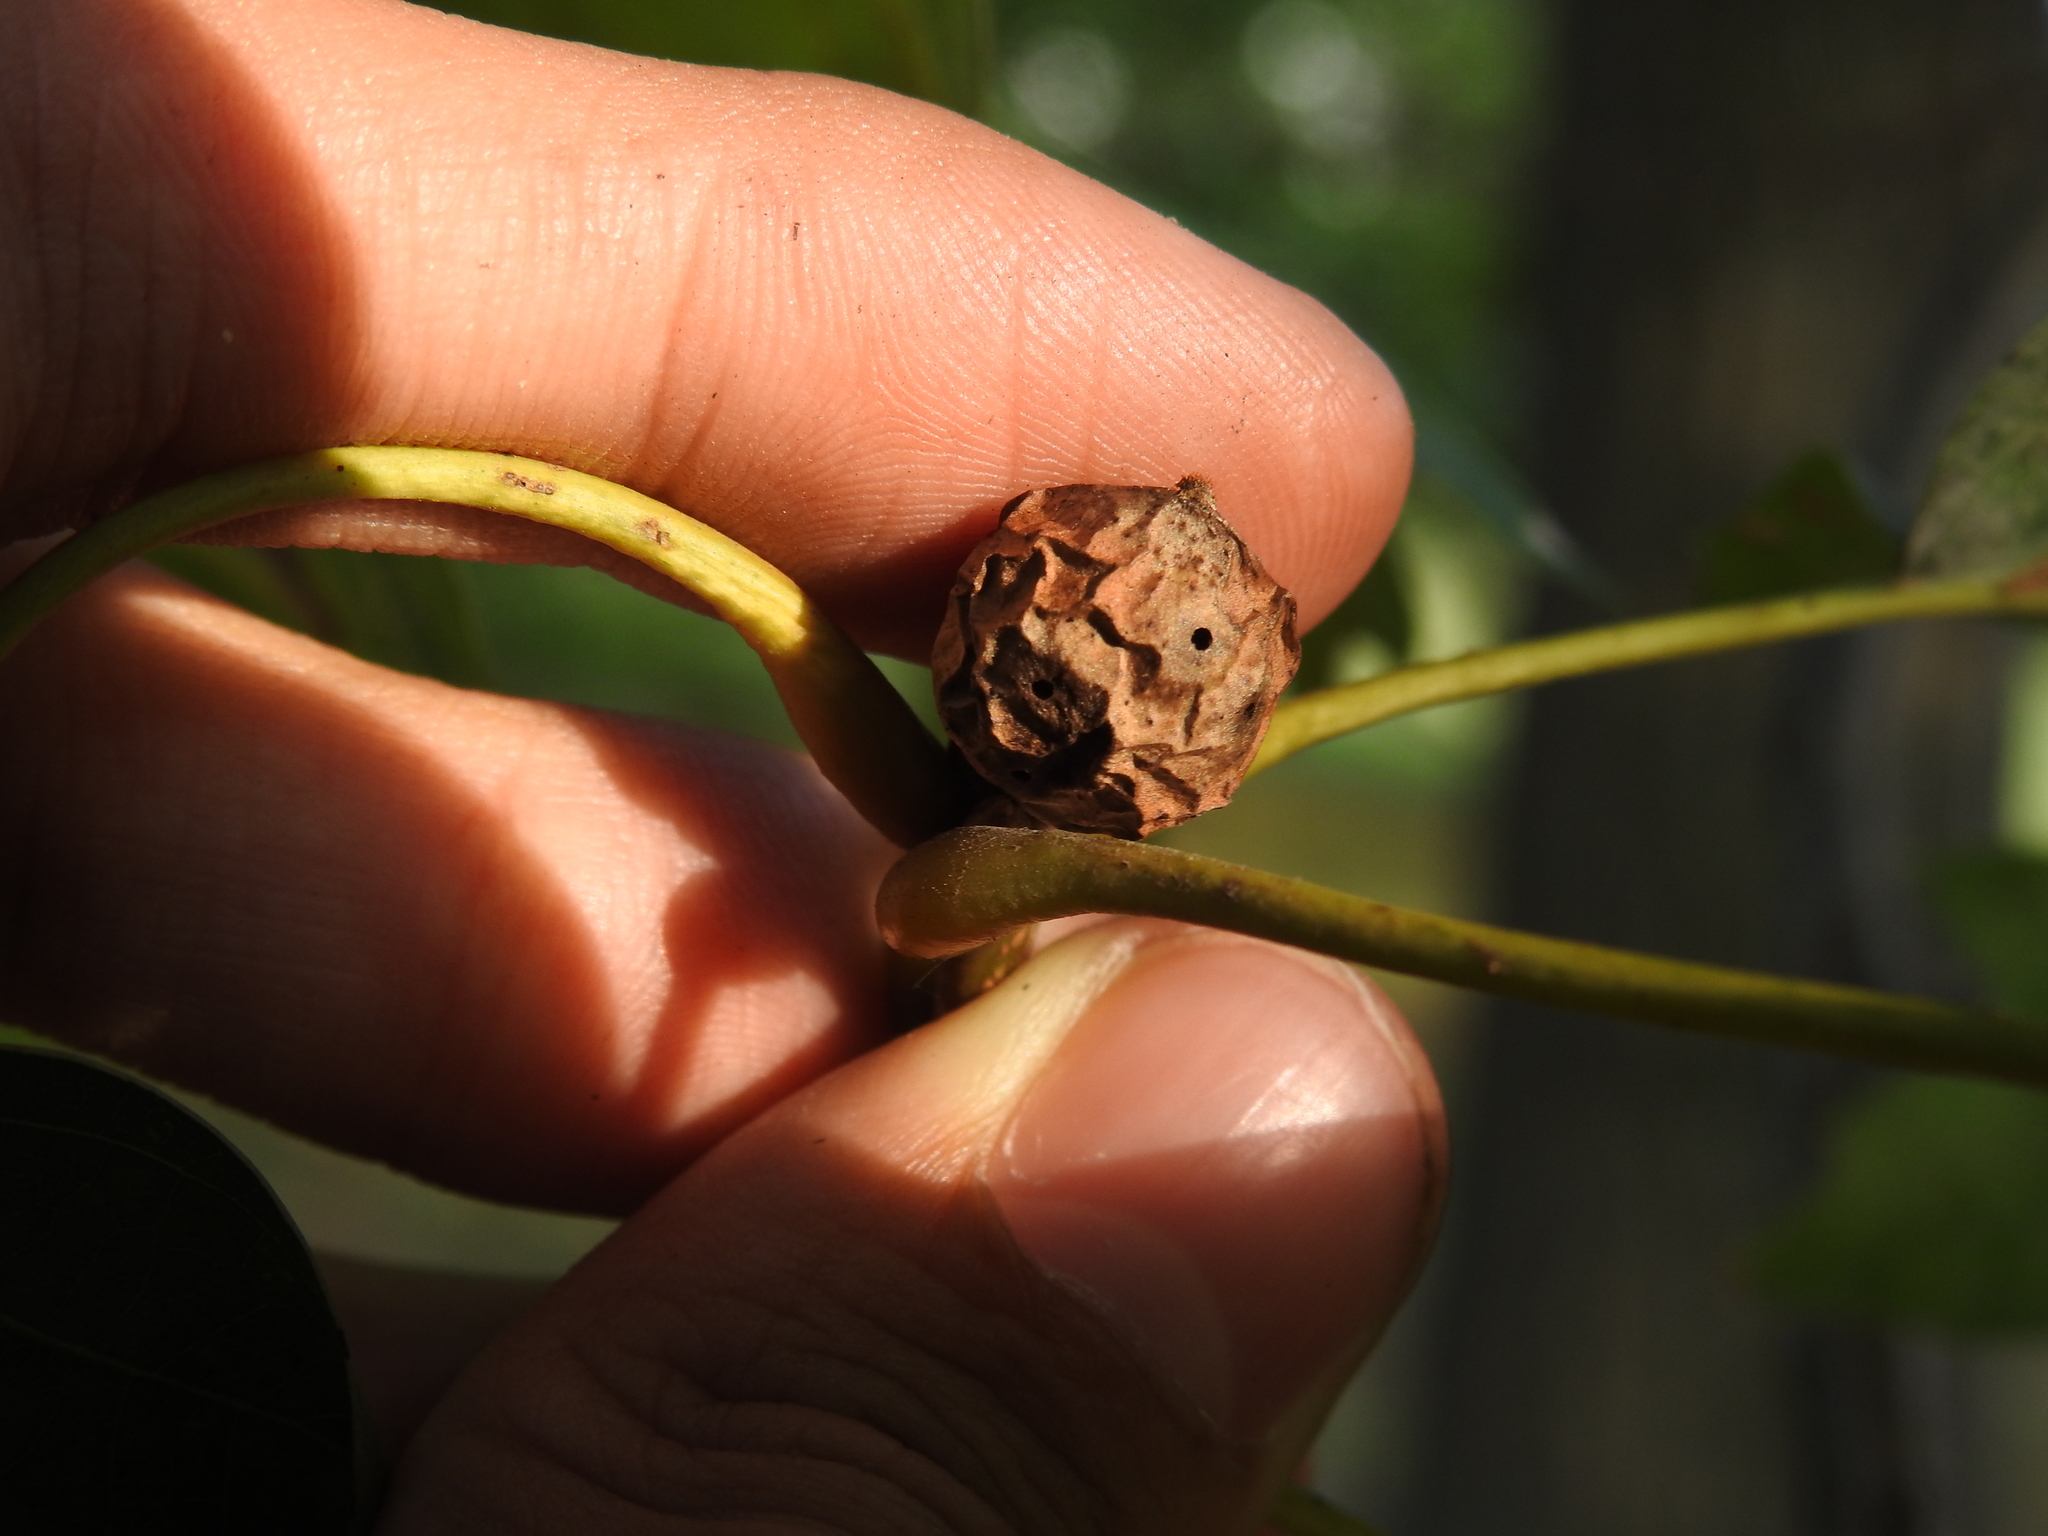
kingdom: Animalia
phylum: Arthropoda
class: Insecta
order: Hymenoptera
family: Cynipidae
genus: Amphibolips
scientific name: Amphibolips
